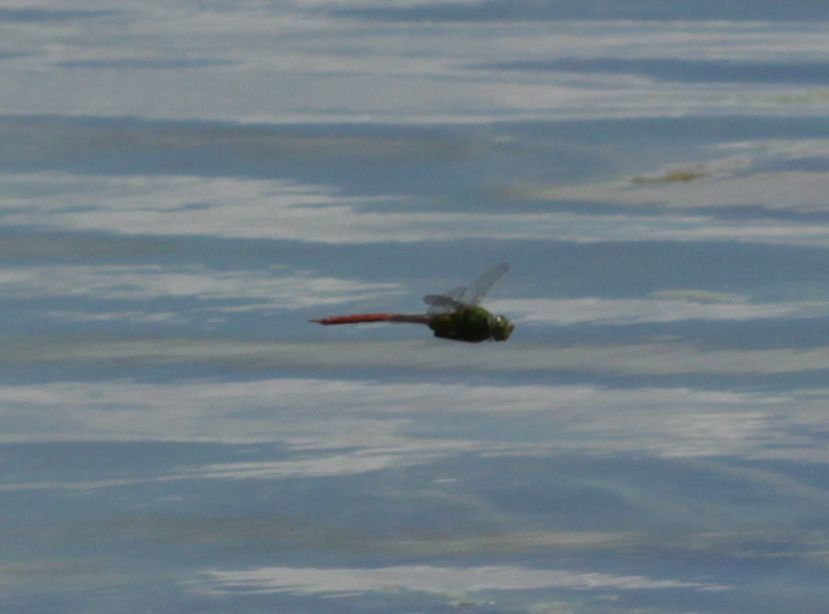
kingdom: Animalia
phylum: Arthropoda
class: Insecta
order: Odonata
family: Aeshnidae
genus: Anax
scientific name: Anax longipes
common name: Comet darner
